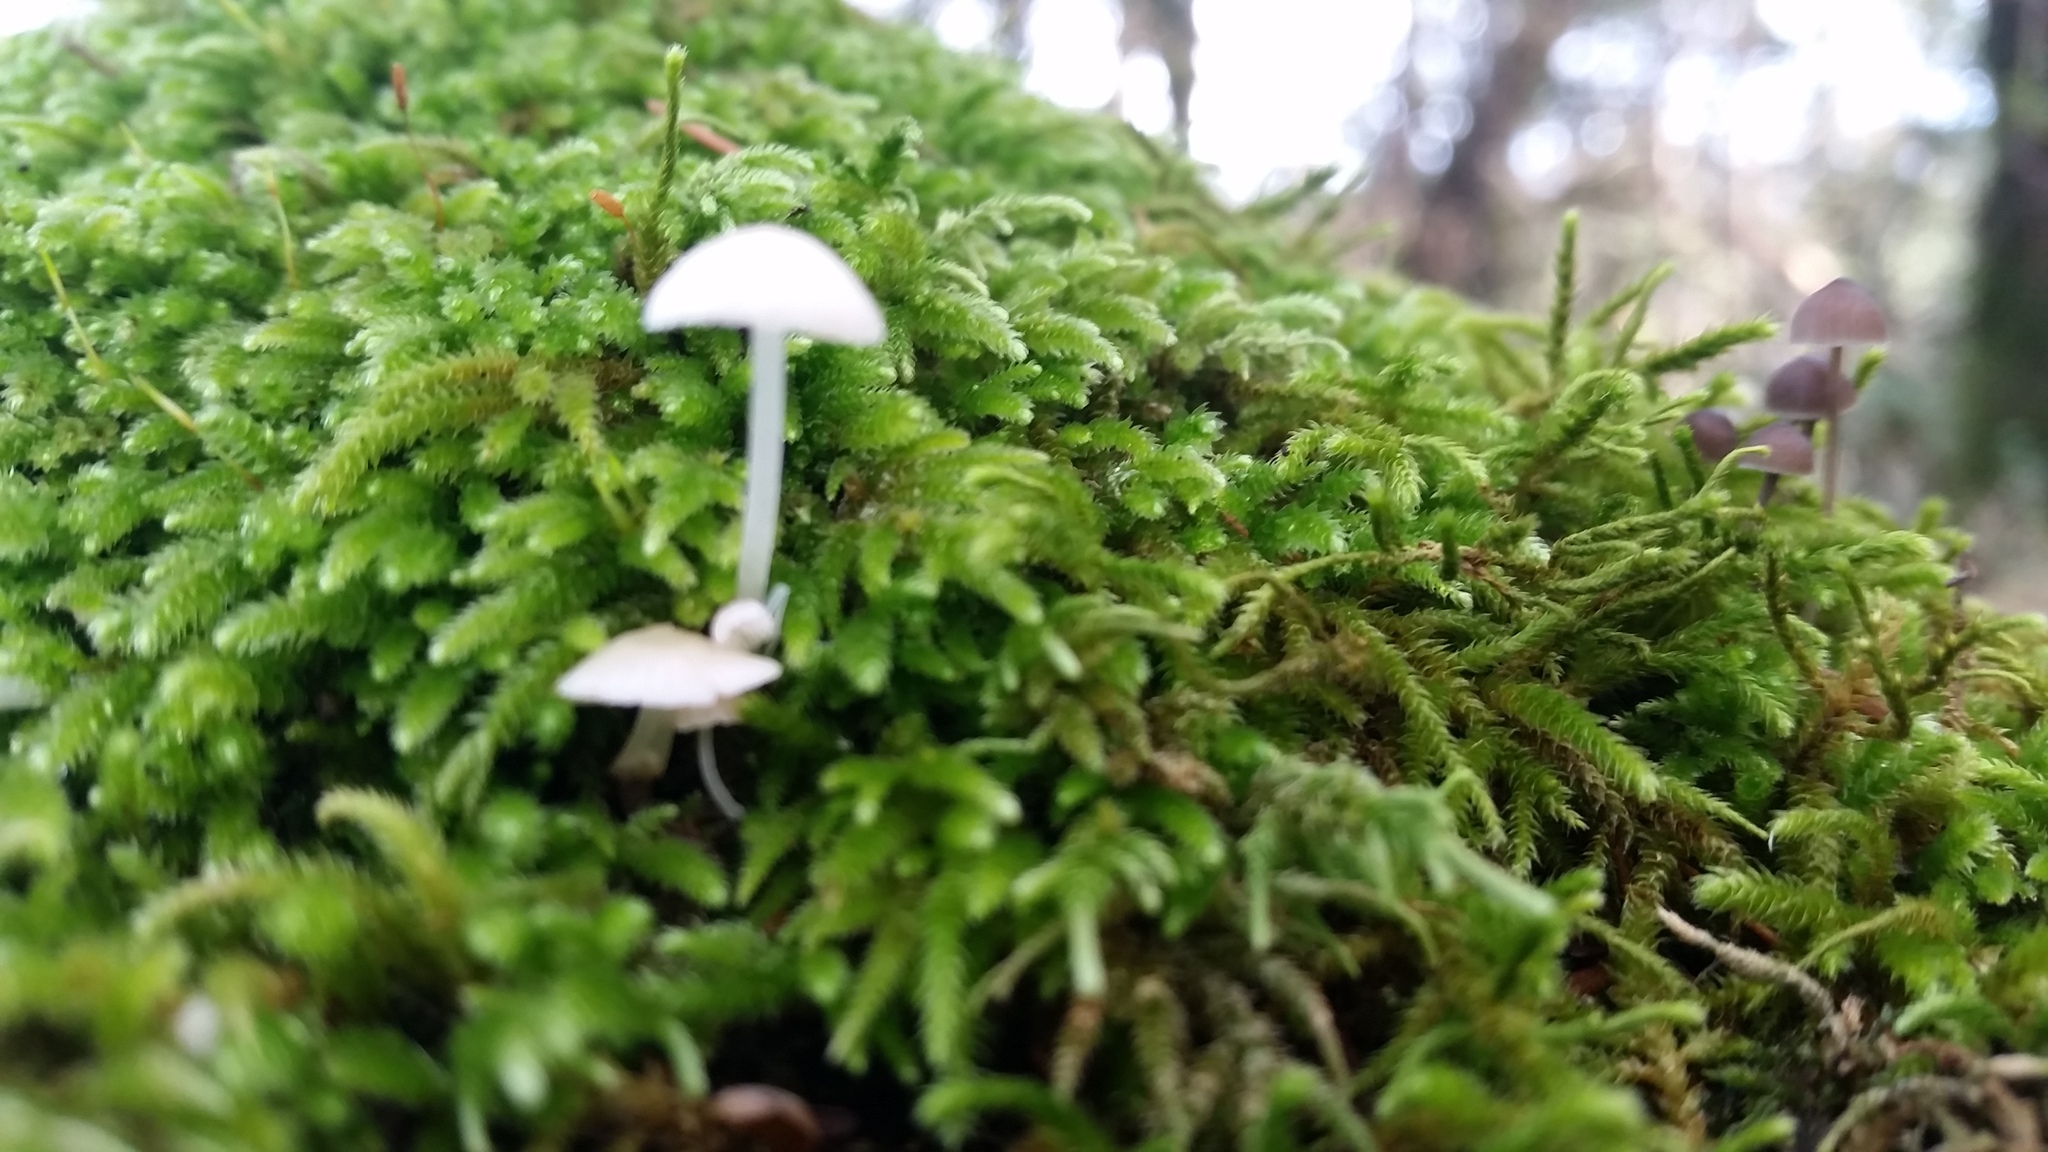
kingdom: Fungi
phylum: Basidiomycota
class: Agaricomycetes
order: Agaricales
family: Mycenaceae
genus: Mycena
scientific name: Mycena tenerrima
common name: Frosty bonnet
